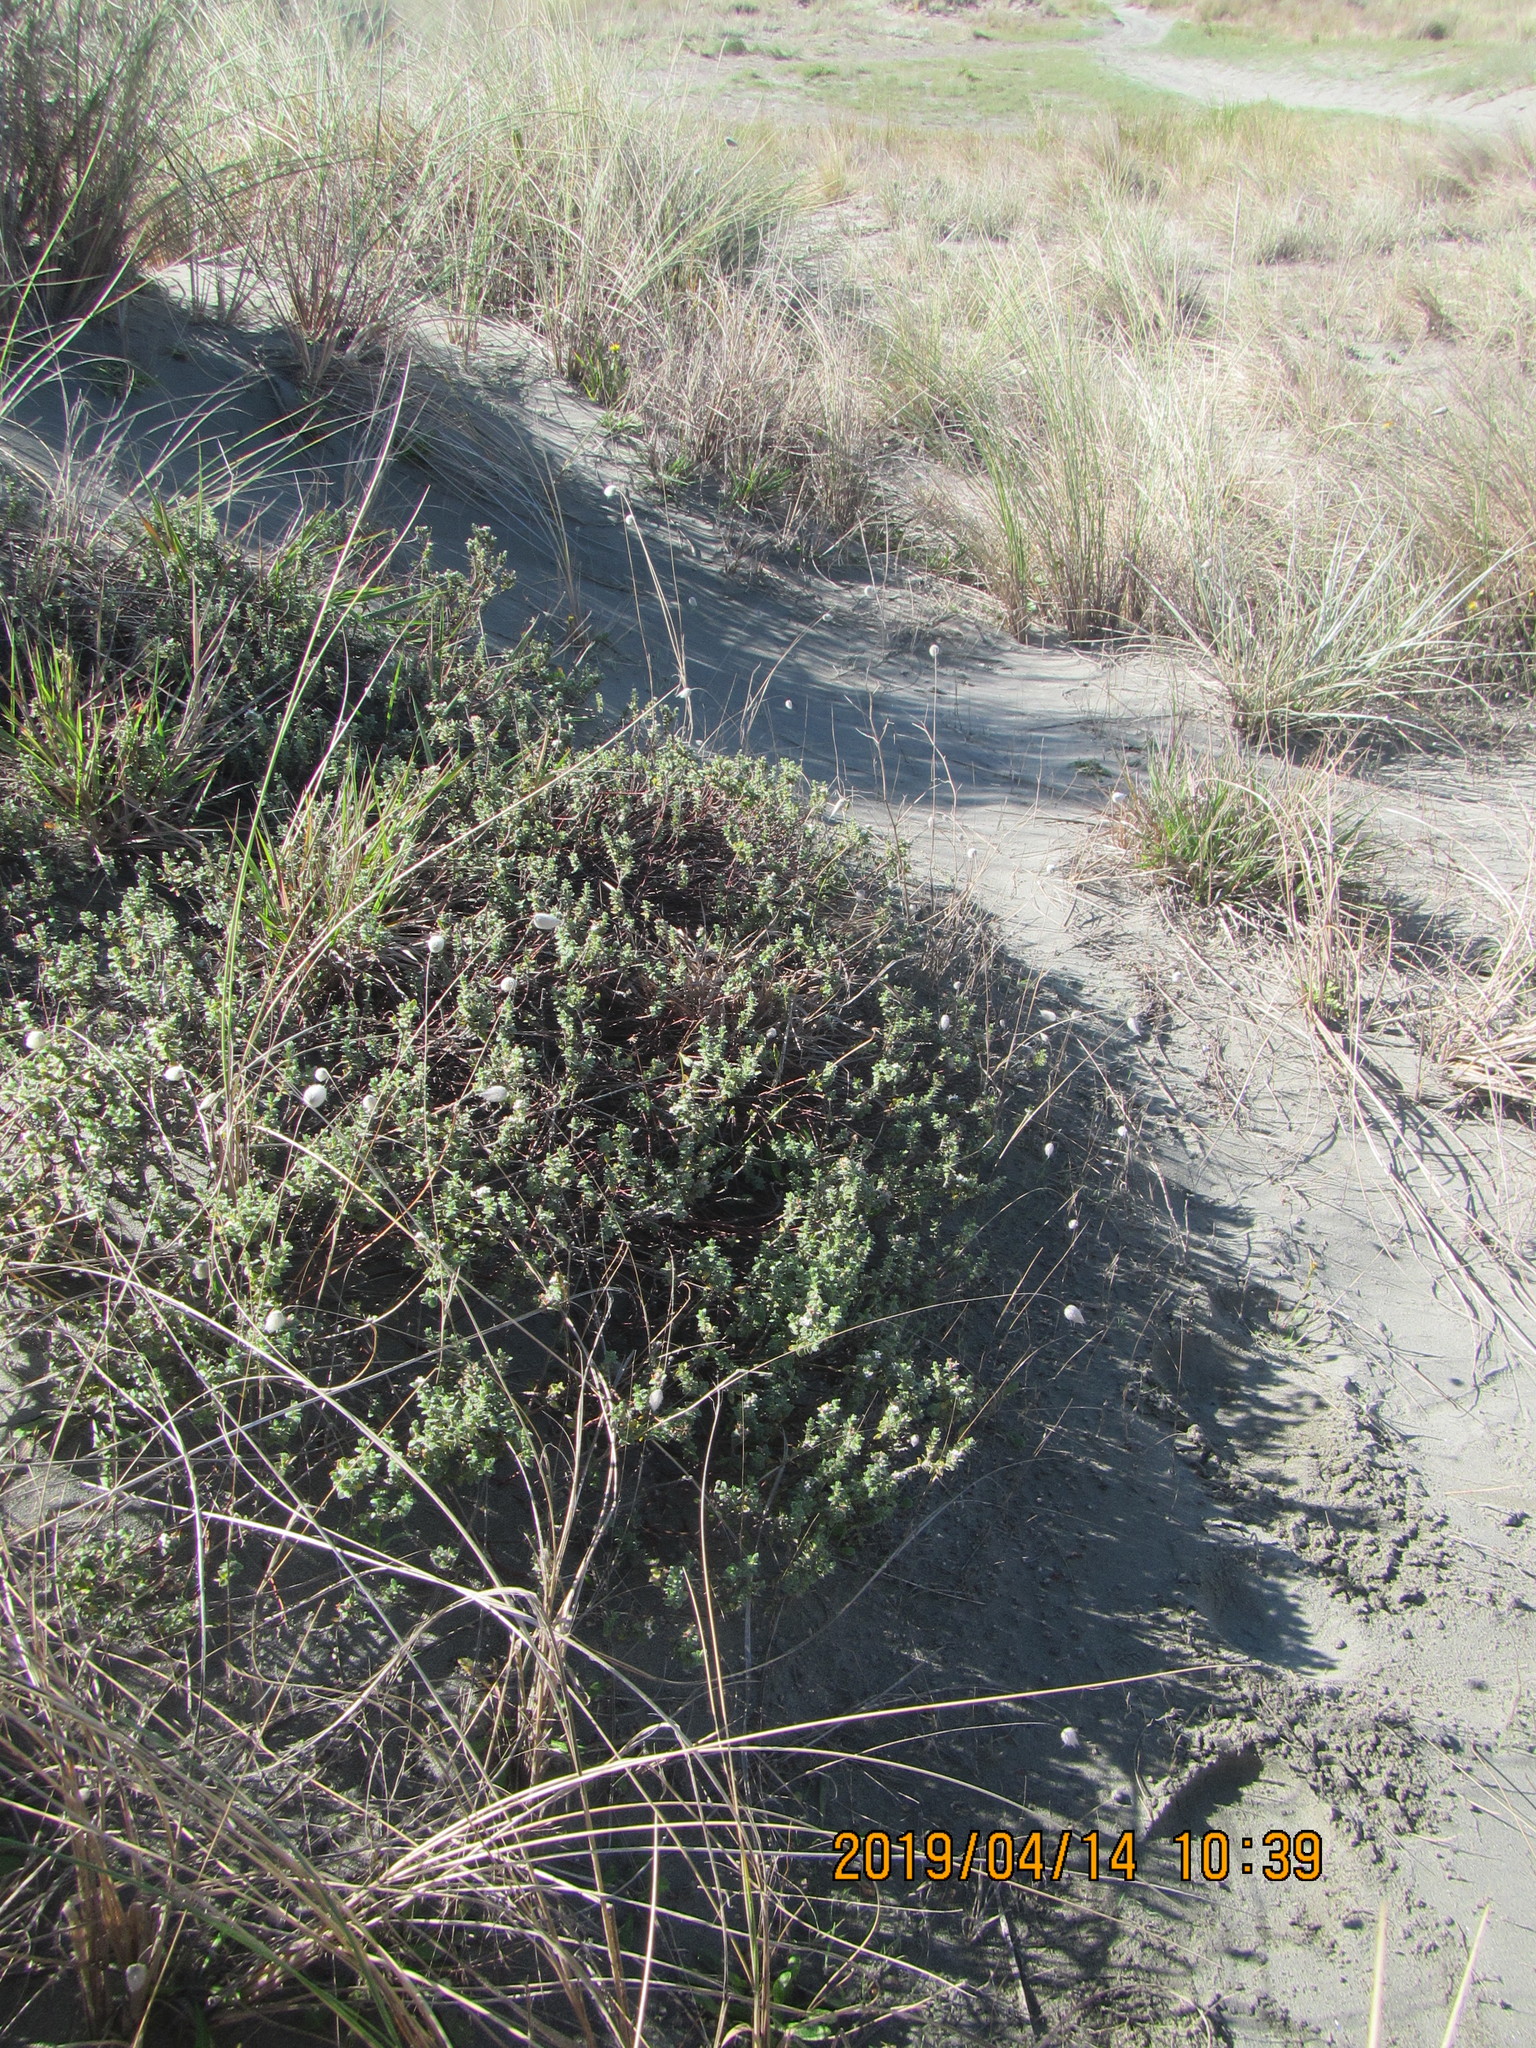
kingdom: Plantae
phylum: Tracheophyta
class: Magnoliopsida
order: Malvales
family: Thymelaeaceae
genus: Pimelea
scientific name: Pimelea villosa
